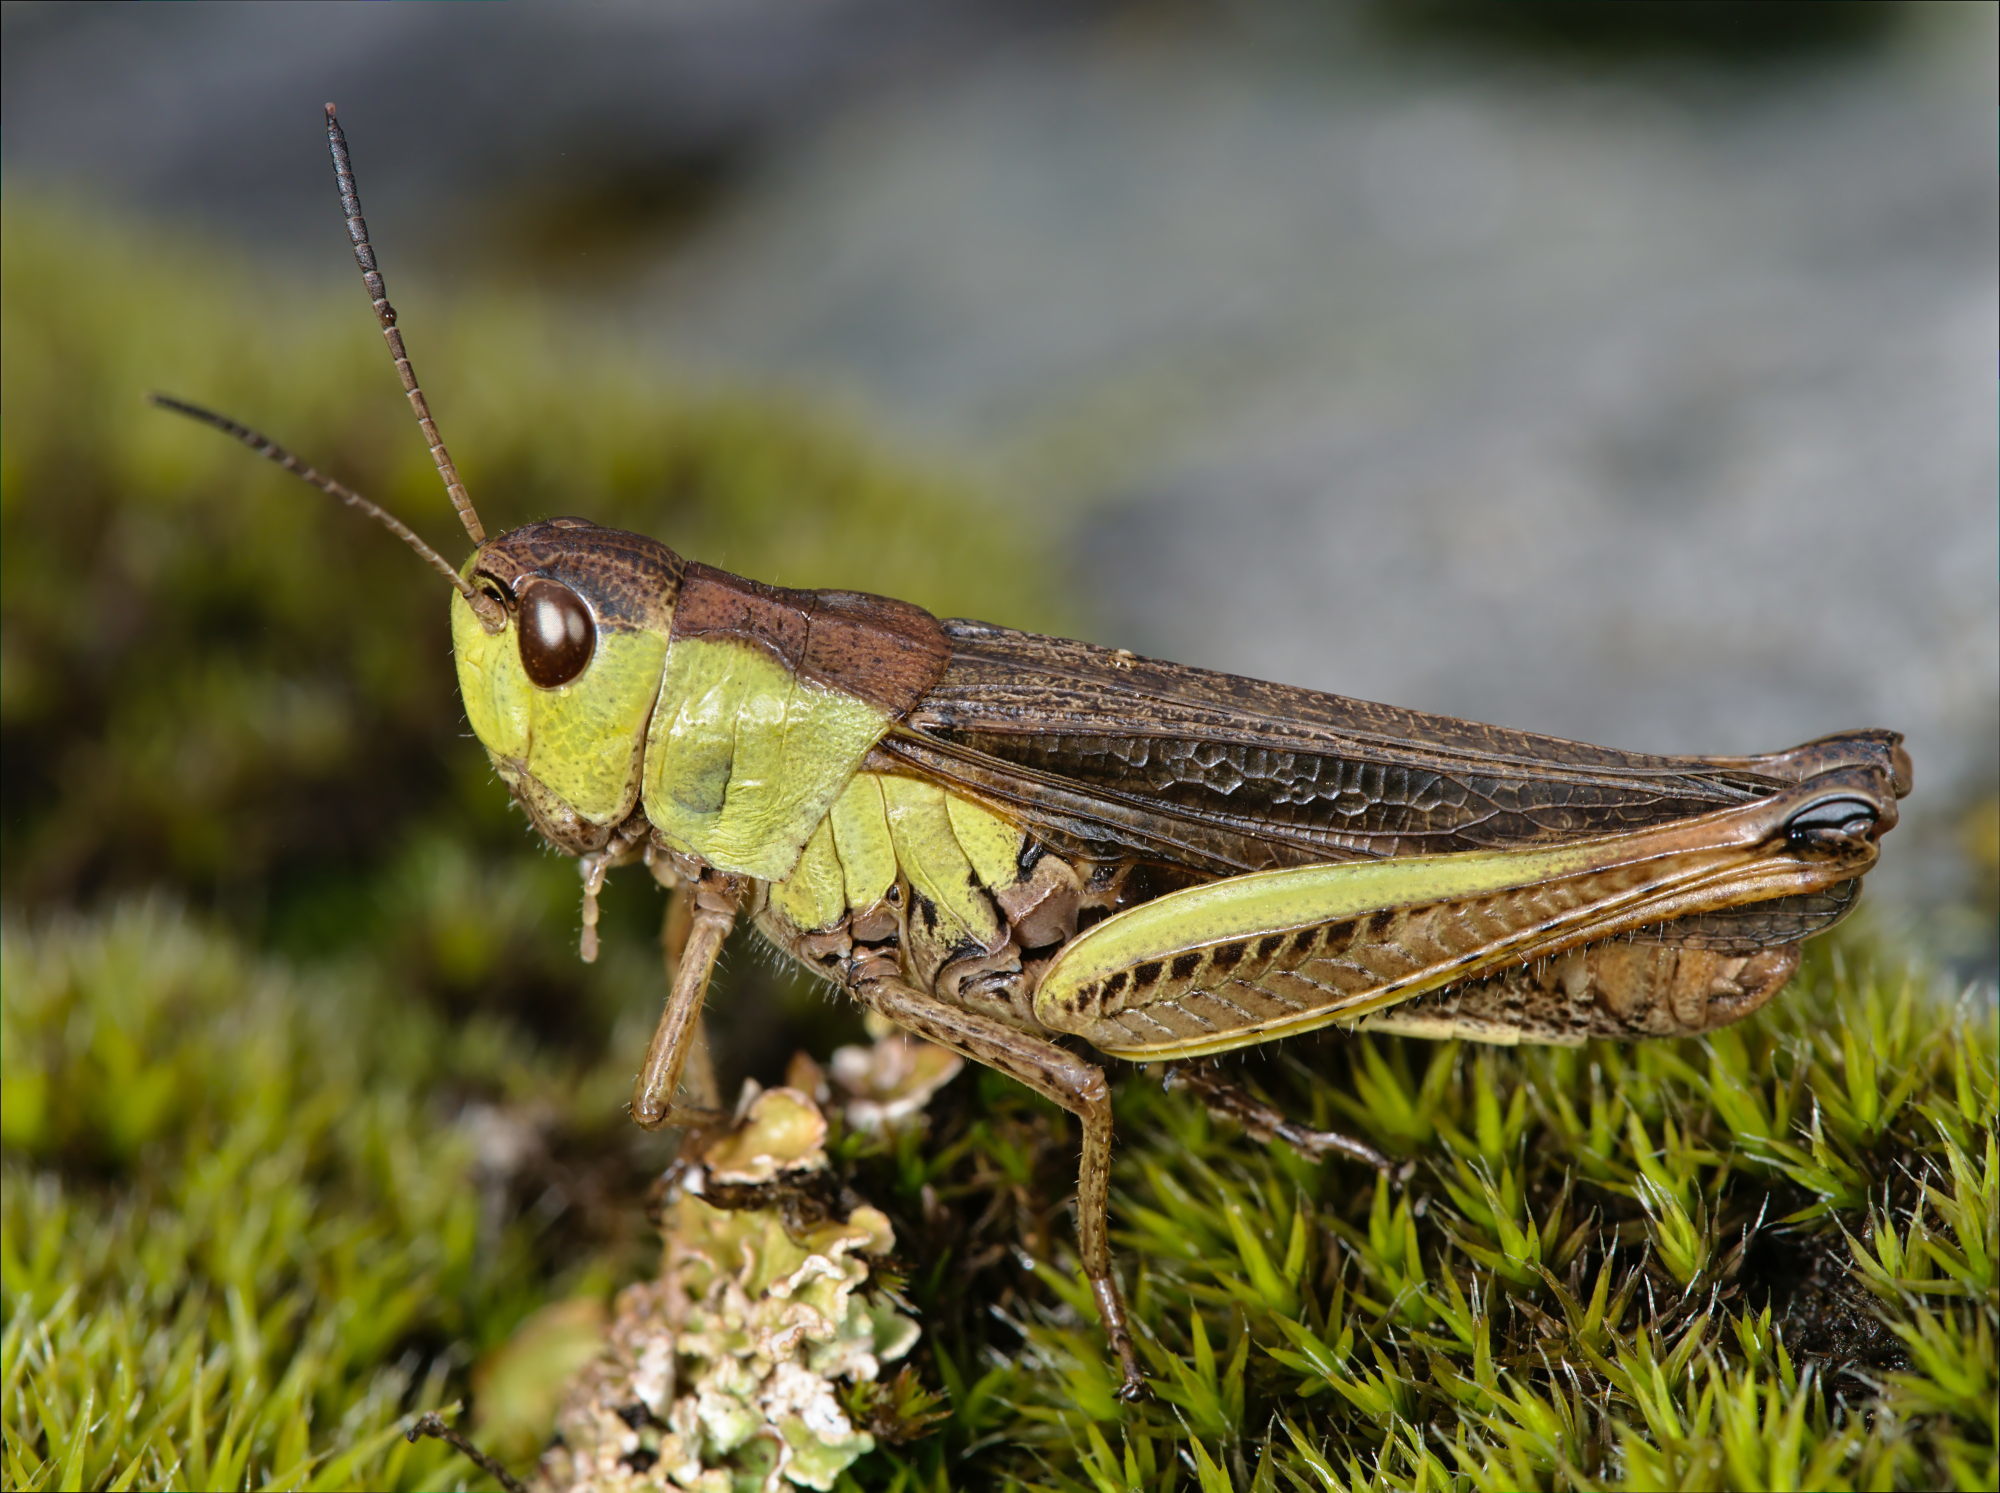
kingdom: Animalia
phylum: Arthropoda
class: Insecta
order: Orthoptera
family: Acrididae
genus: Stauroderus
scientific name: Stauroderus scalaris
